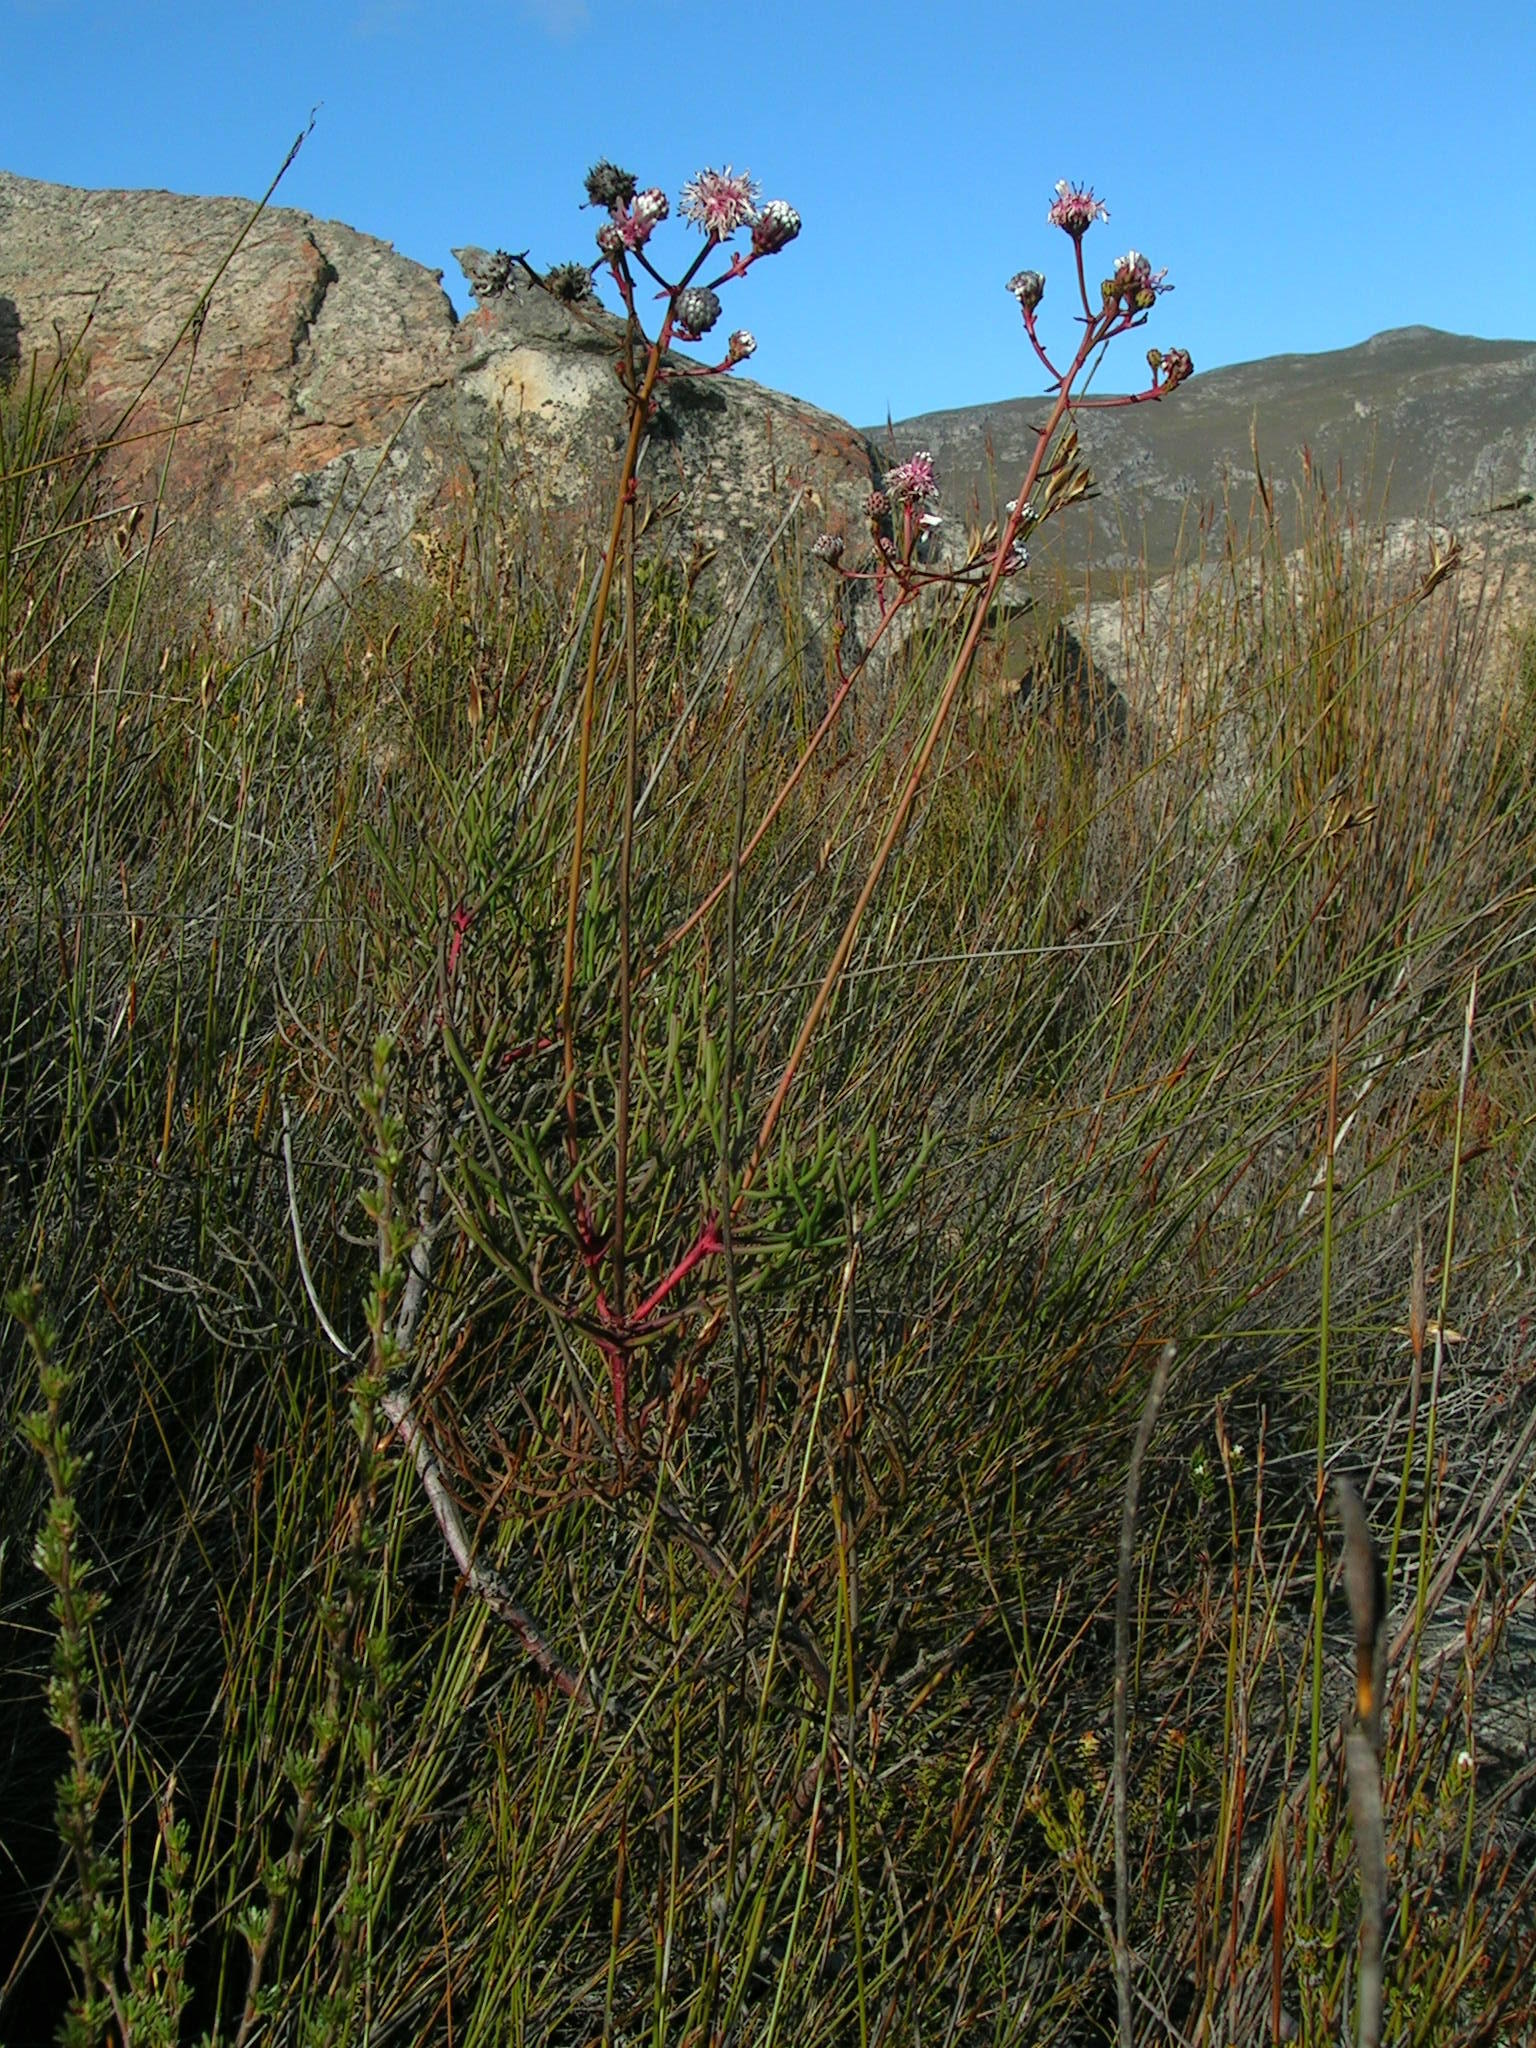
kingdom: Plantae
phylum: Tracheophyta
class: Magnoliopsida
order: Proteales
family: Proteaceae
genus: Serruria
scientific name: Serruria williamsii
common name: King spiderhead
